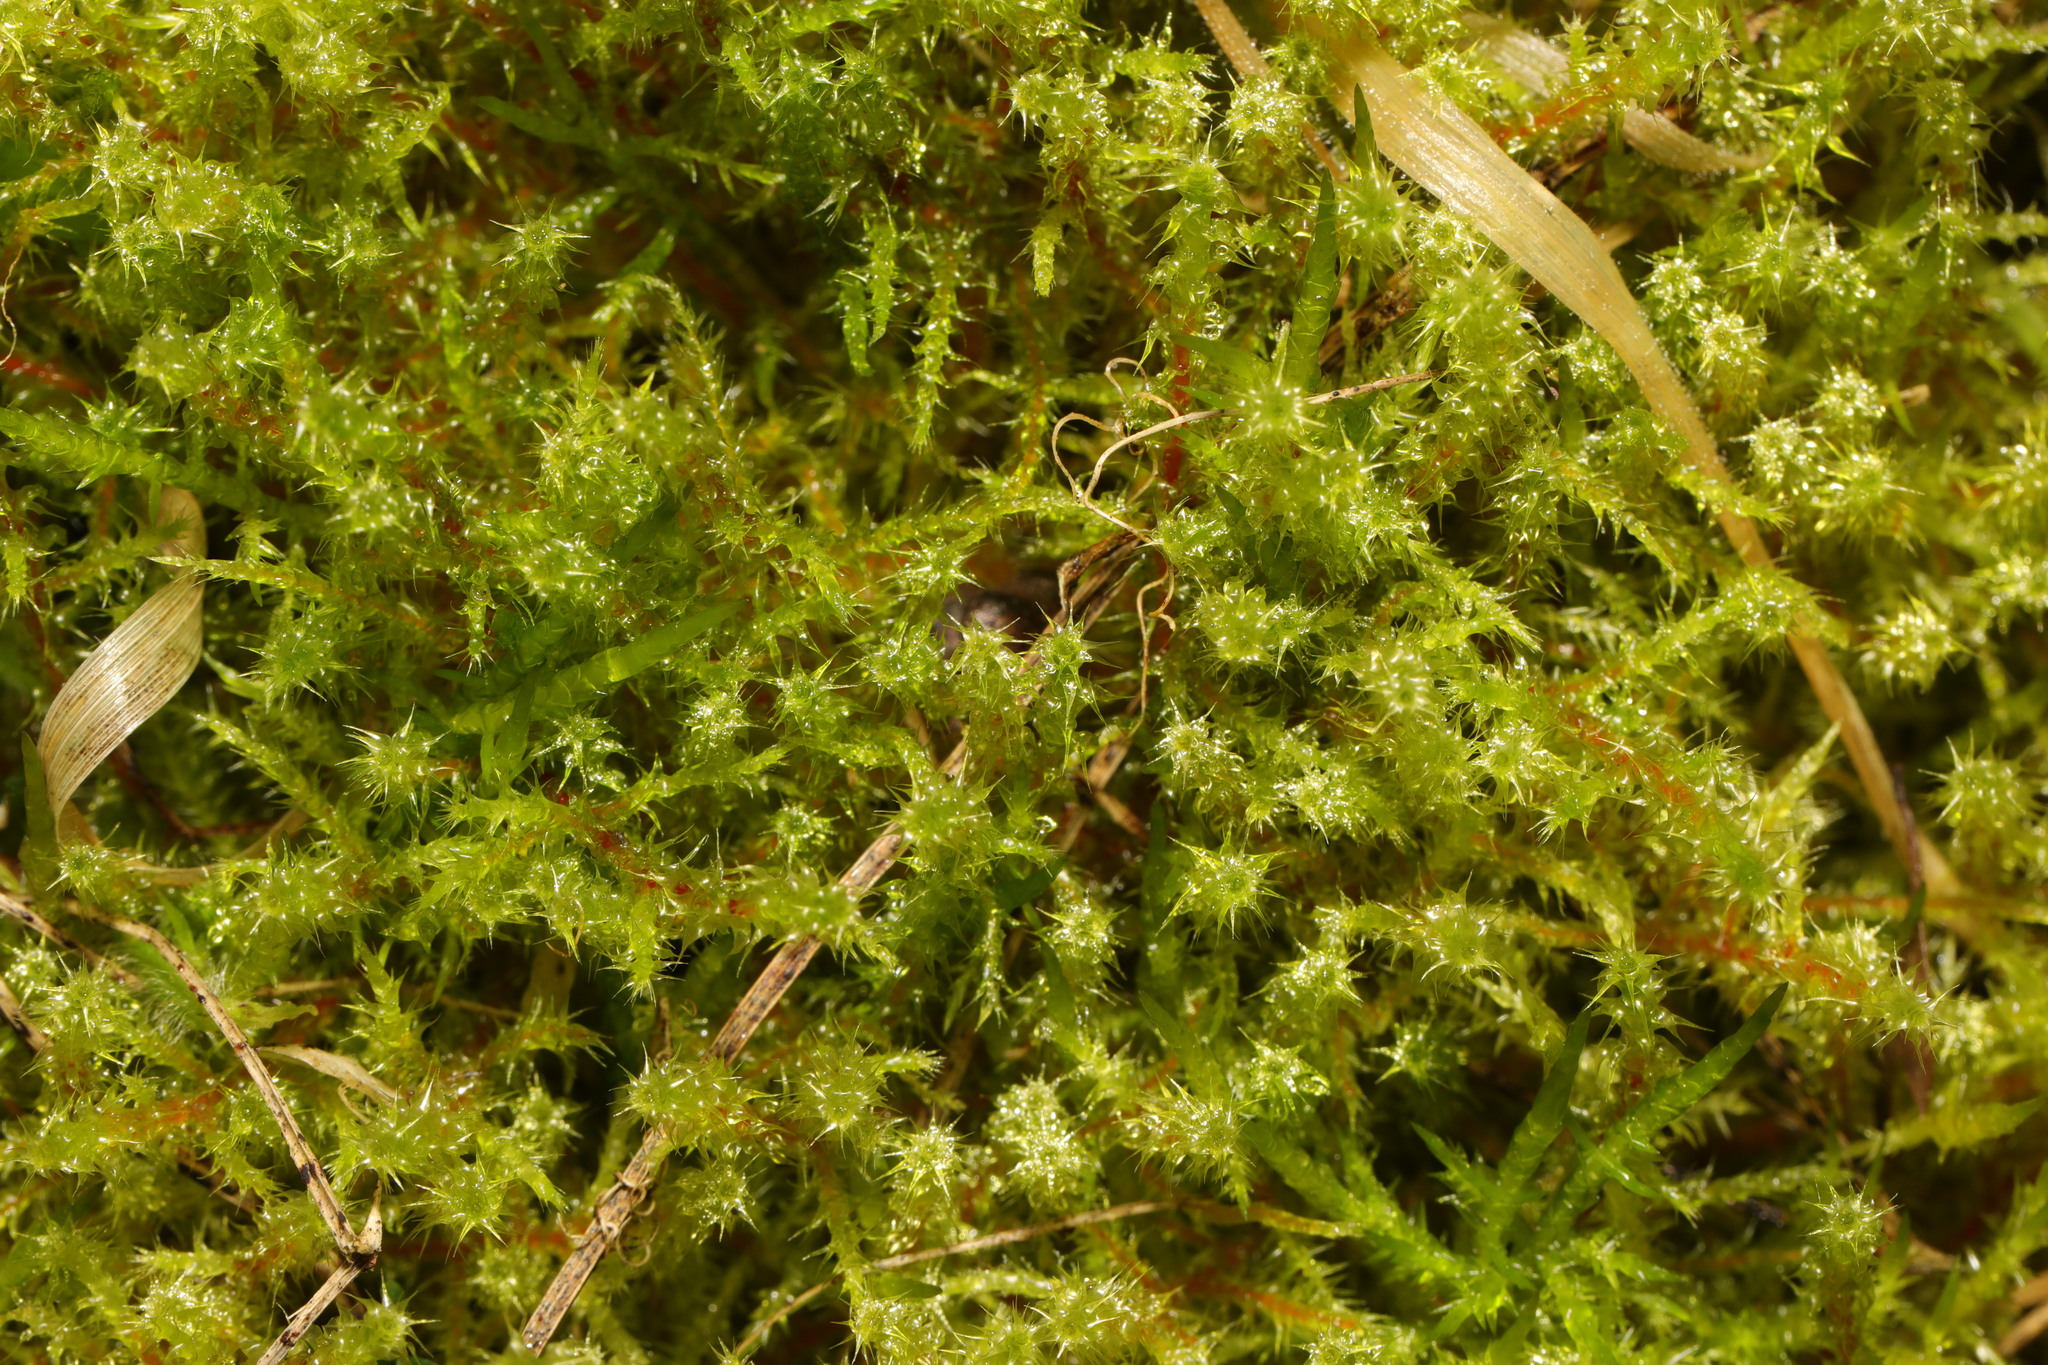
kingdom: Plantae
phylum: Bryophyta
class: Bryopsida
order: Hypnales
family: Hylocomiaceae
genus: Rhytidiadelphus
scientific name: Rhytidiadelphus squarrosus
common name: Springy turf-moss
